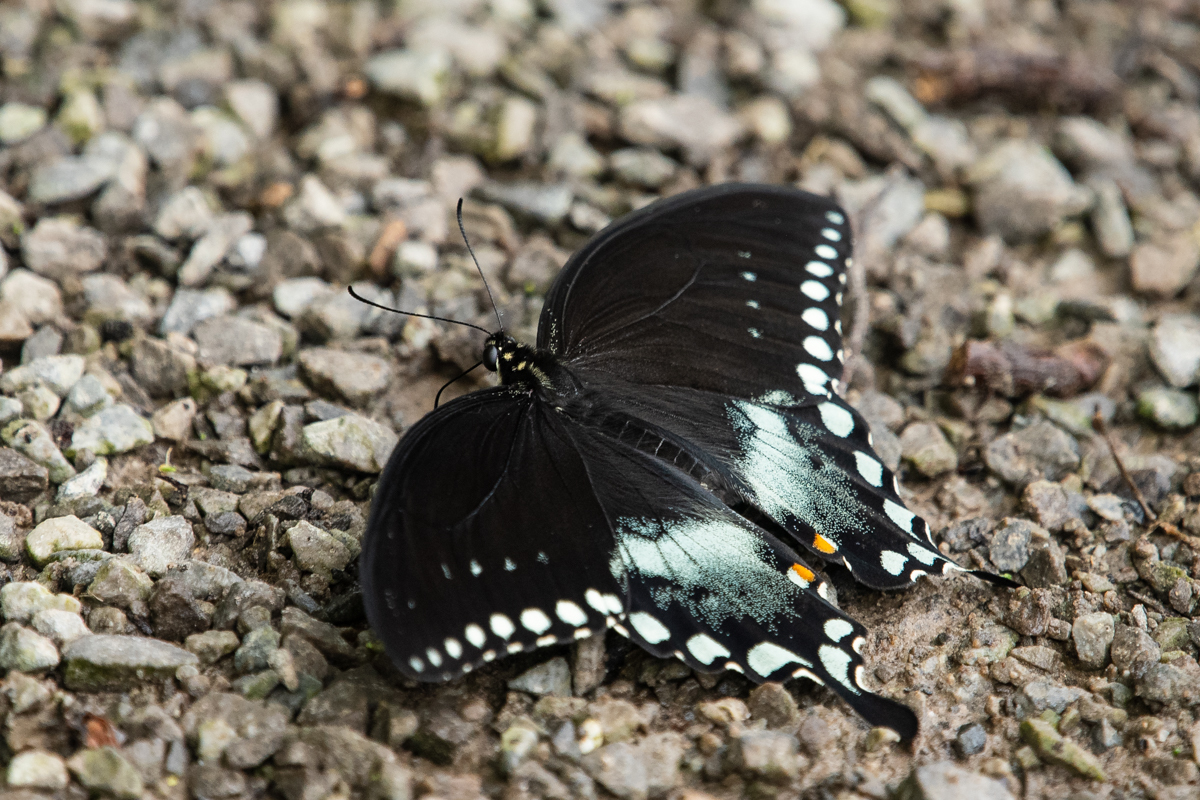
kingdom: Animalia
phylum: Arthropoda
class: Insecta
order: Lepidoptera
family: Papilionidae
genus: Papilio
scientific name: Papilio troilus
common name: Spicebush swallowtail
